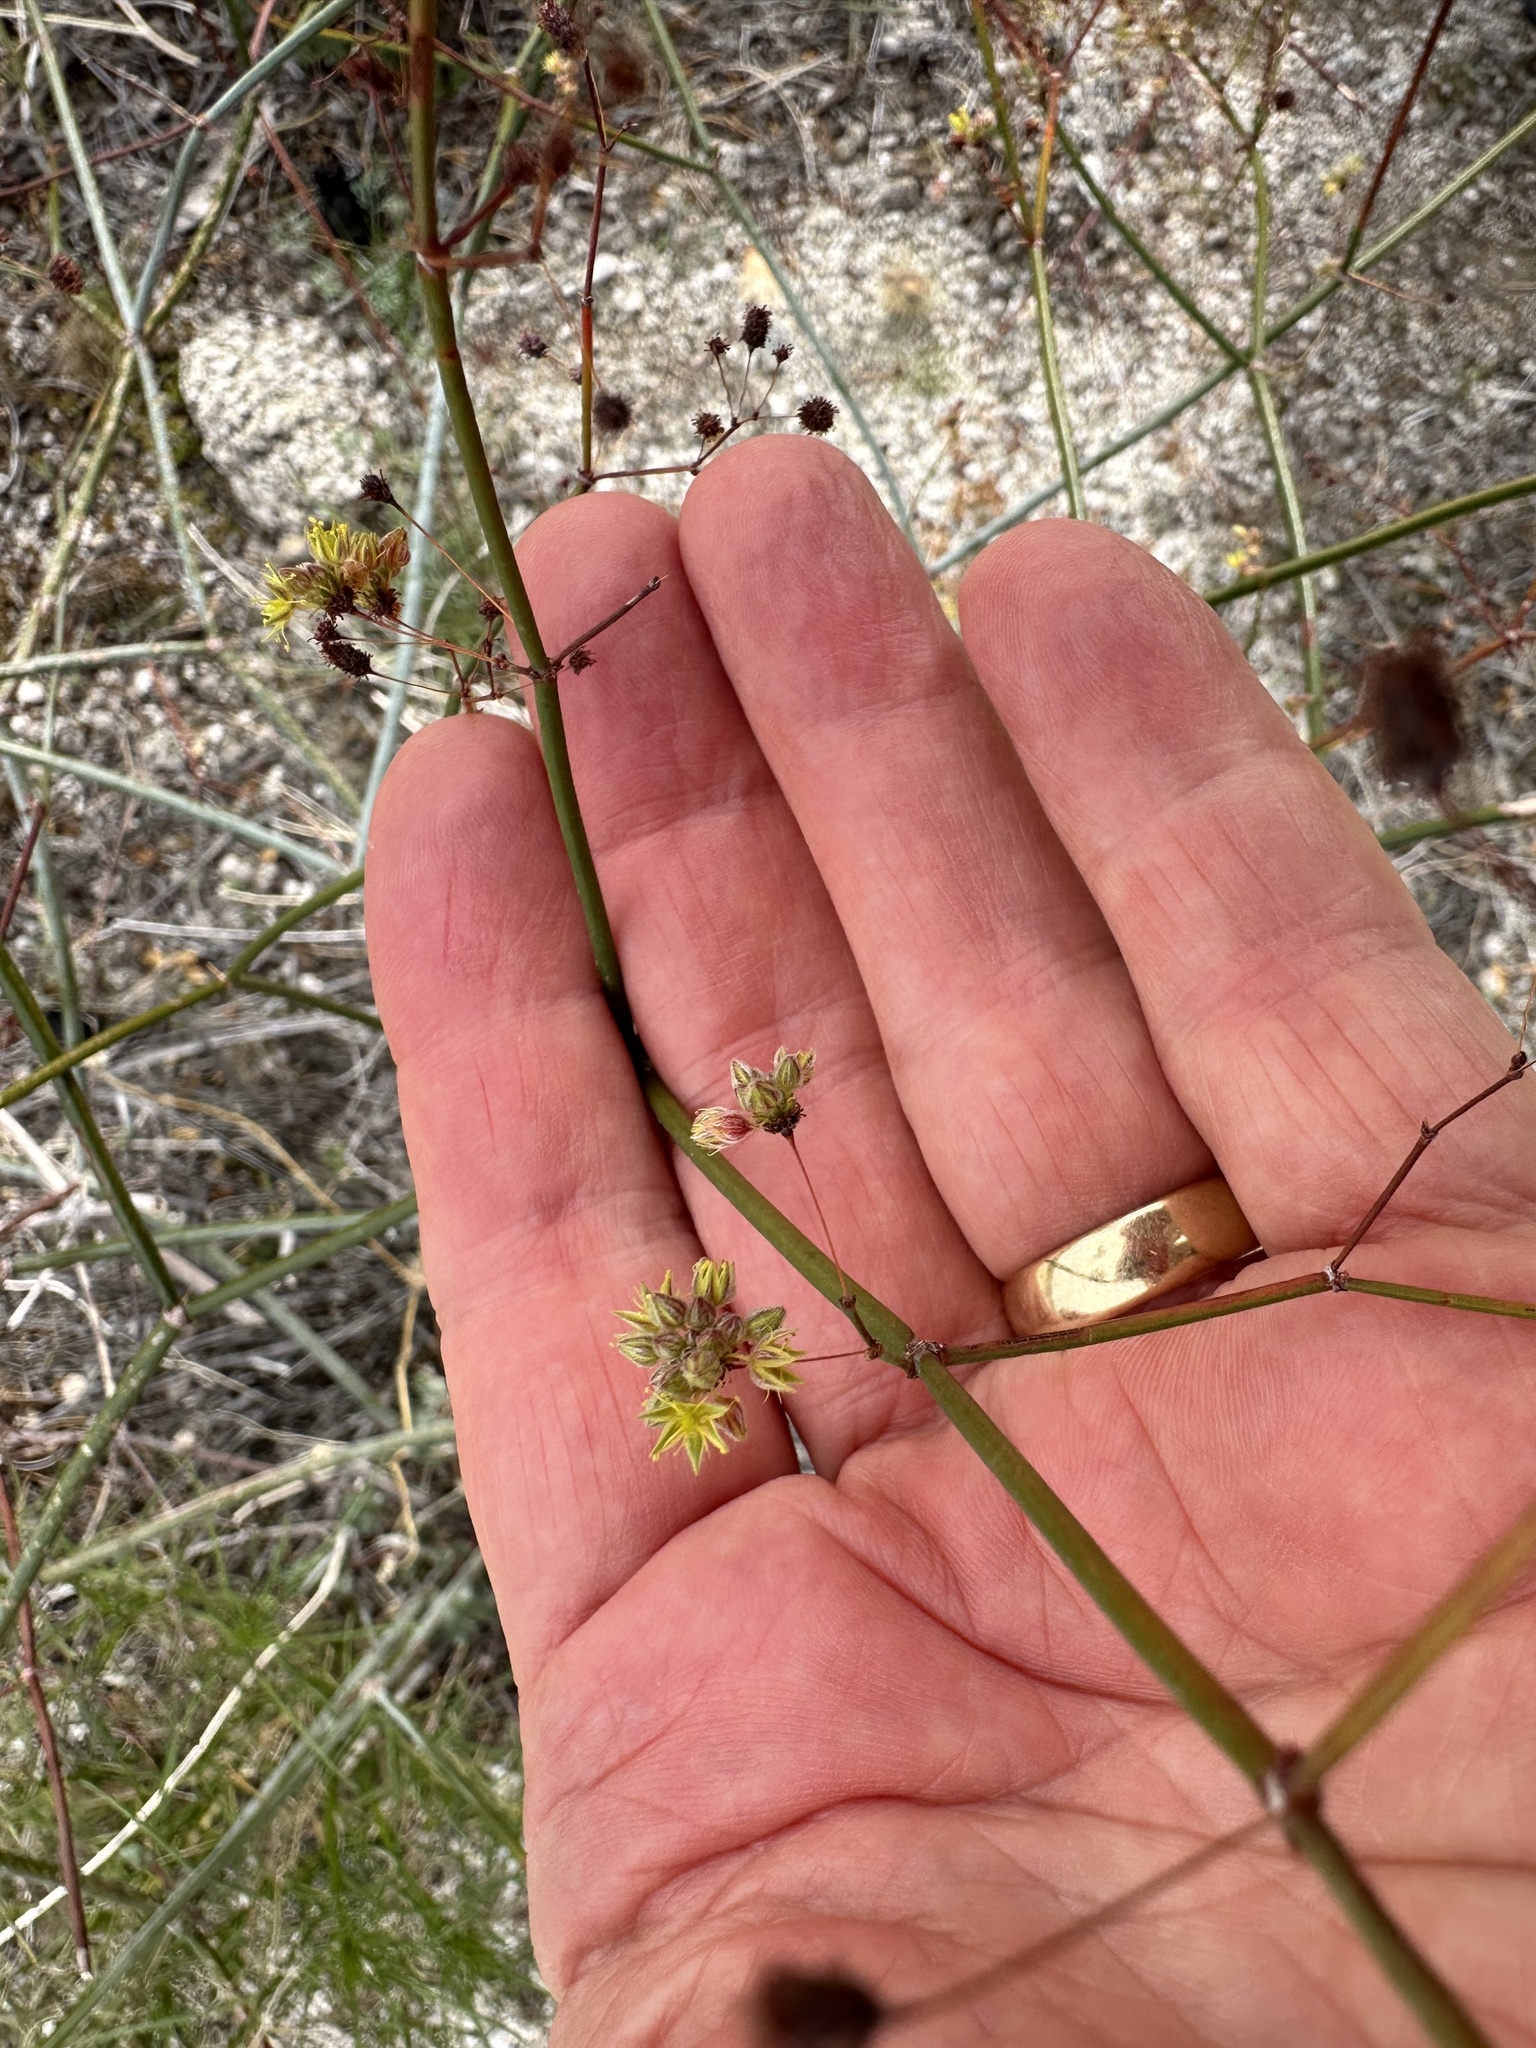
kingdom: Plantae
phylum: Tracheophyta
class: Magnoliopsida
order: Caryophyllales
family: Polygonaceae
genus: Eriogonum
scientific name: Eriogonum inflatum
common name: Desert trumpet
